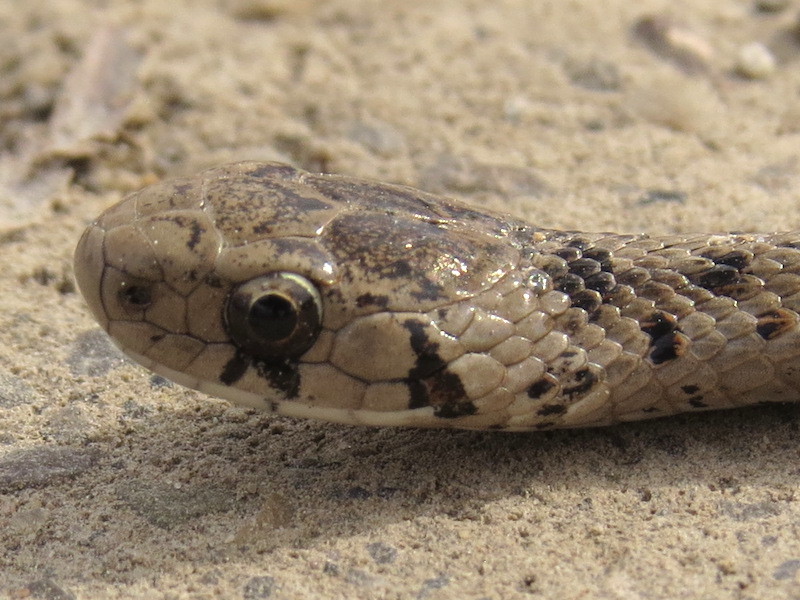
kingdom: Animalia
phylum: Chordata
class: Squamata
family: Colubridae
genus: Storeria
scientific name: Storeria dekayi
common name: (dekay’s) brown snake
